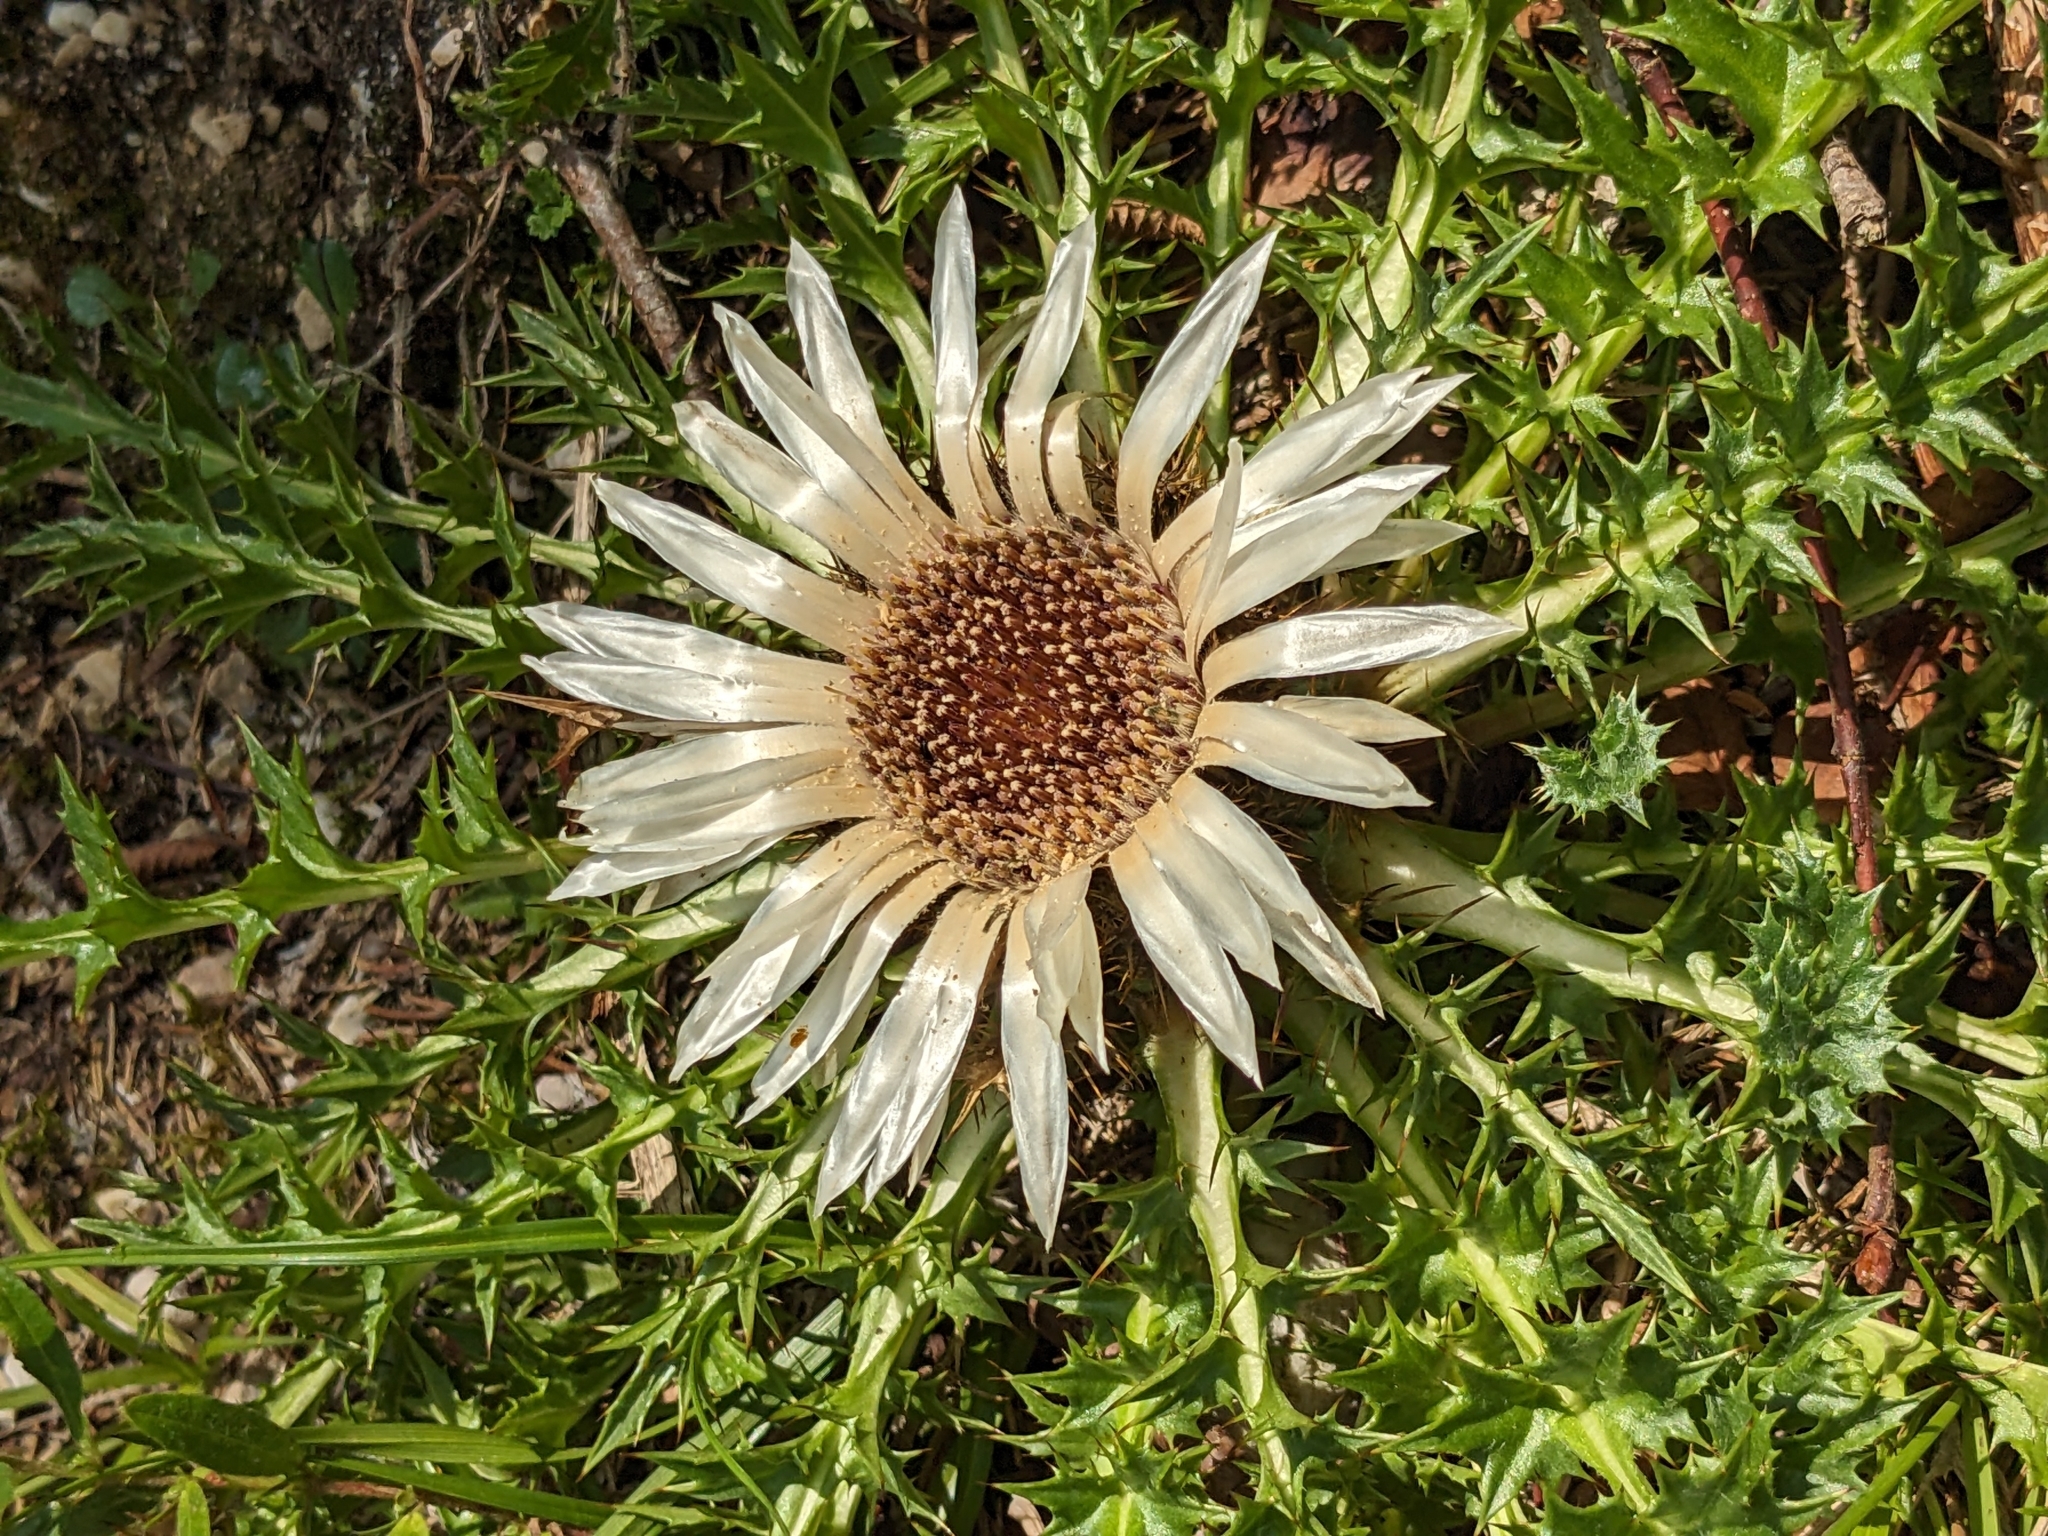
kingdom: Plantae
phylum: Tracheophyta
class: Magnoliopsida
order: Asterales
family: Asteraceae
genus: Carlina
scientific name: Carlina acaulis
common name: Stemless carline thistle
